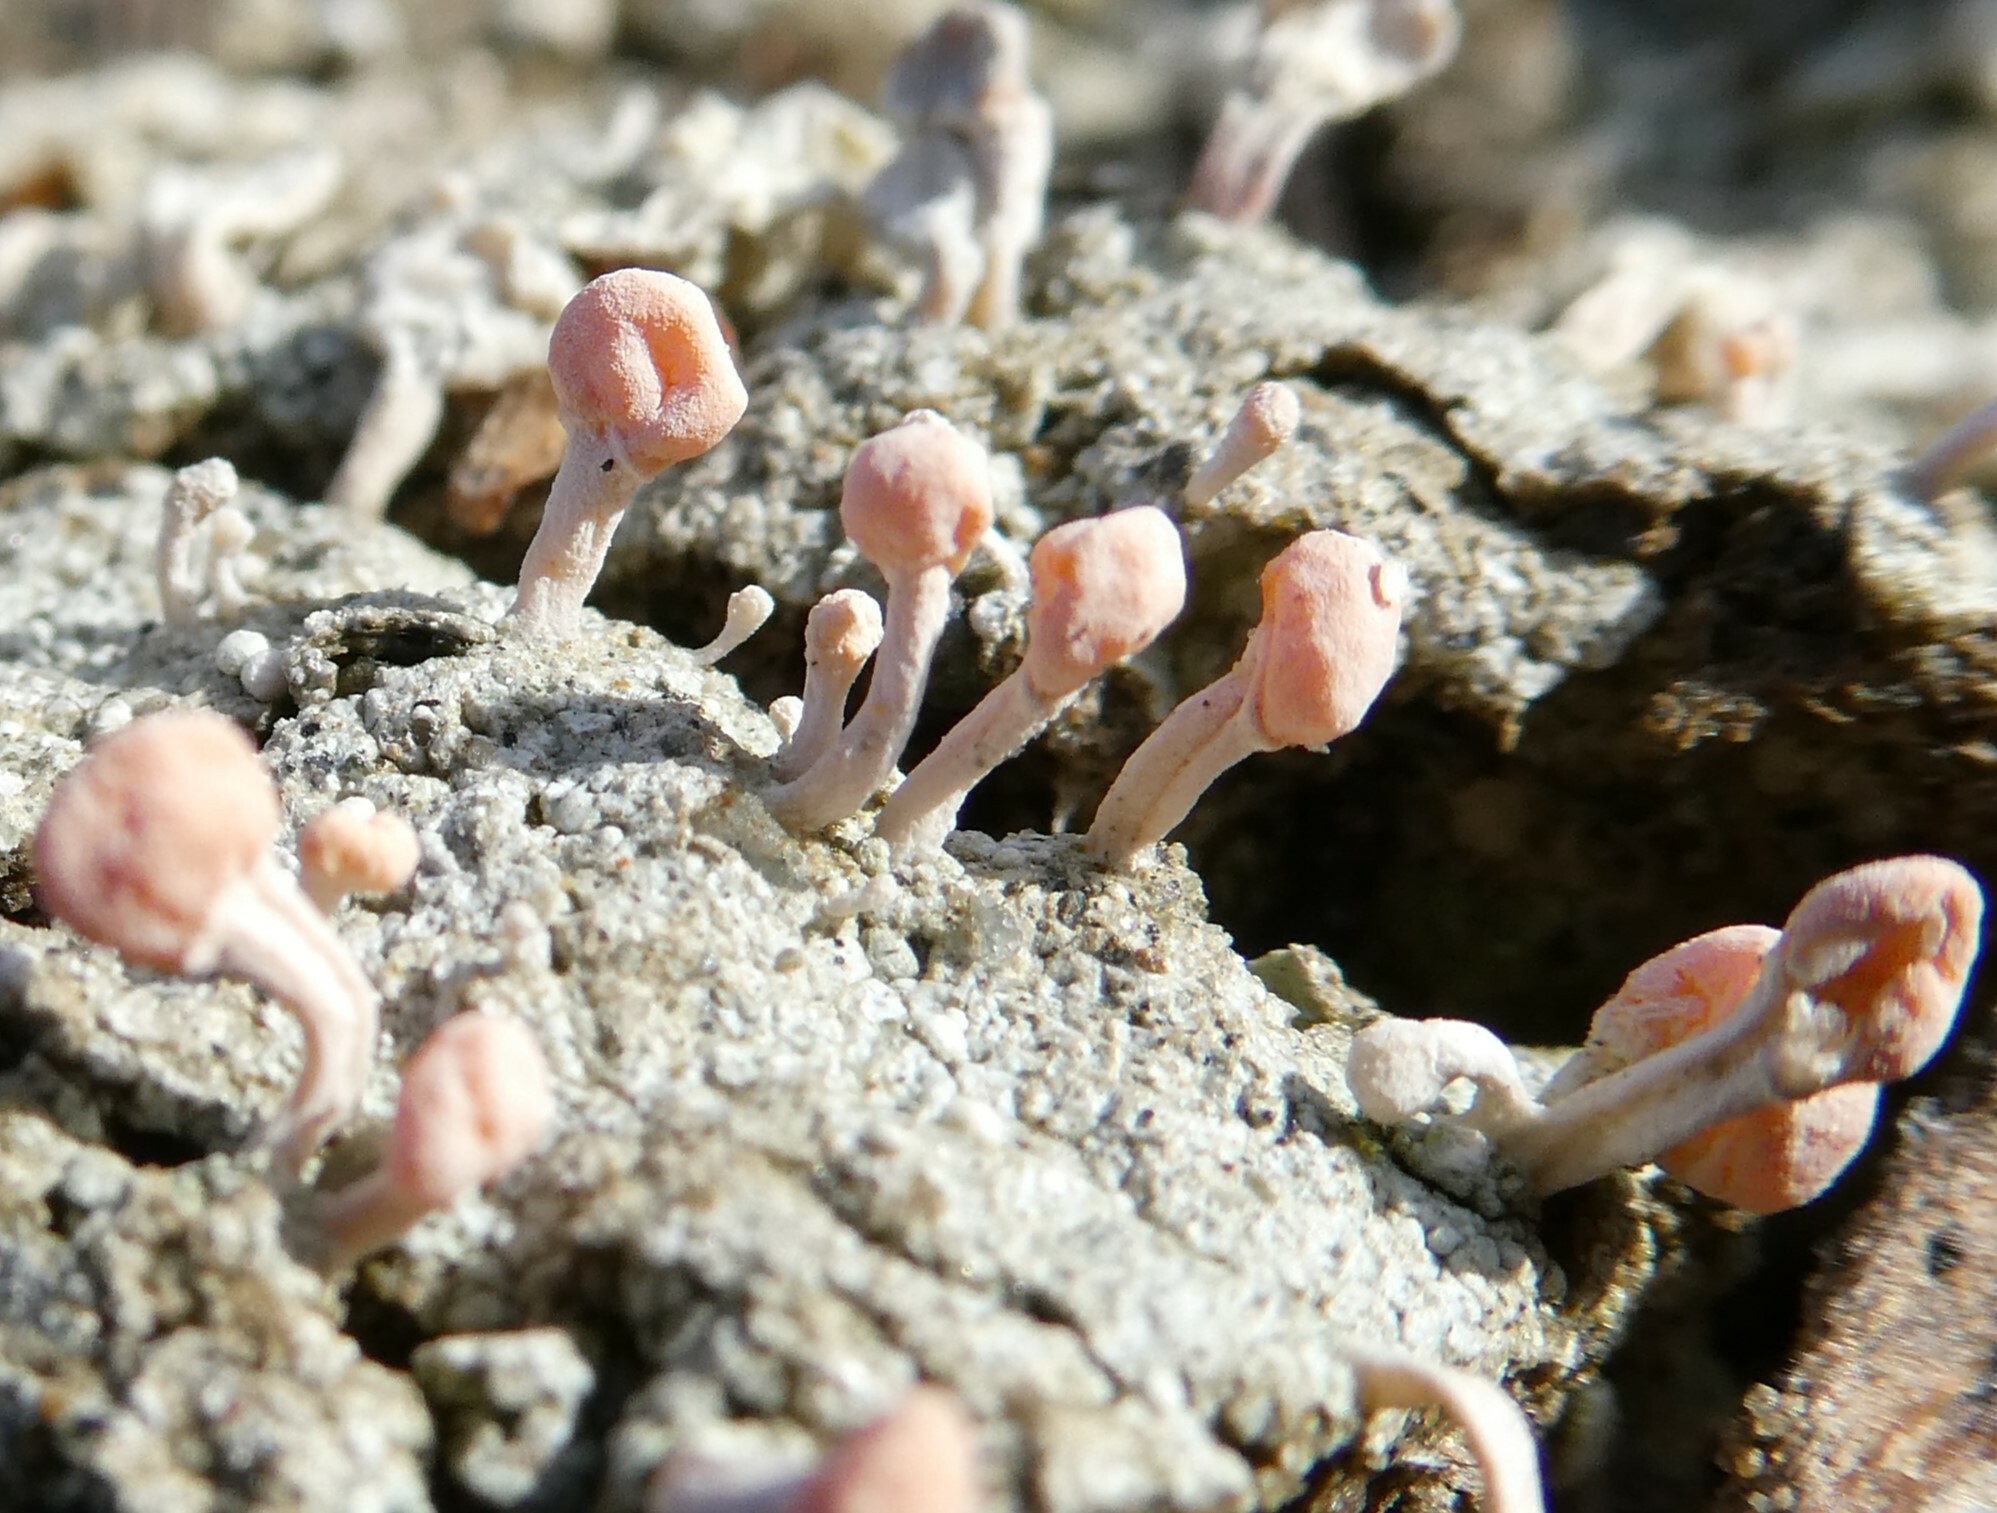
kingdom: Fungi
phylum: Ascomycota
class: Lecanoromycetes
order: Pertusariales
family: Icmadophilaceae
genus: Dibaeis
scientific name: Dibaeis baeomyces
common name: Pink earth lichen
